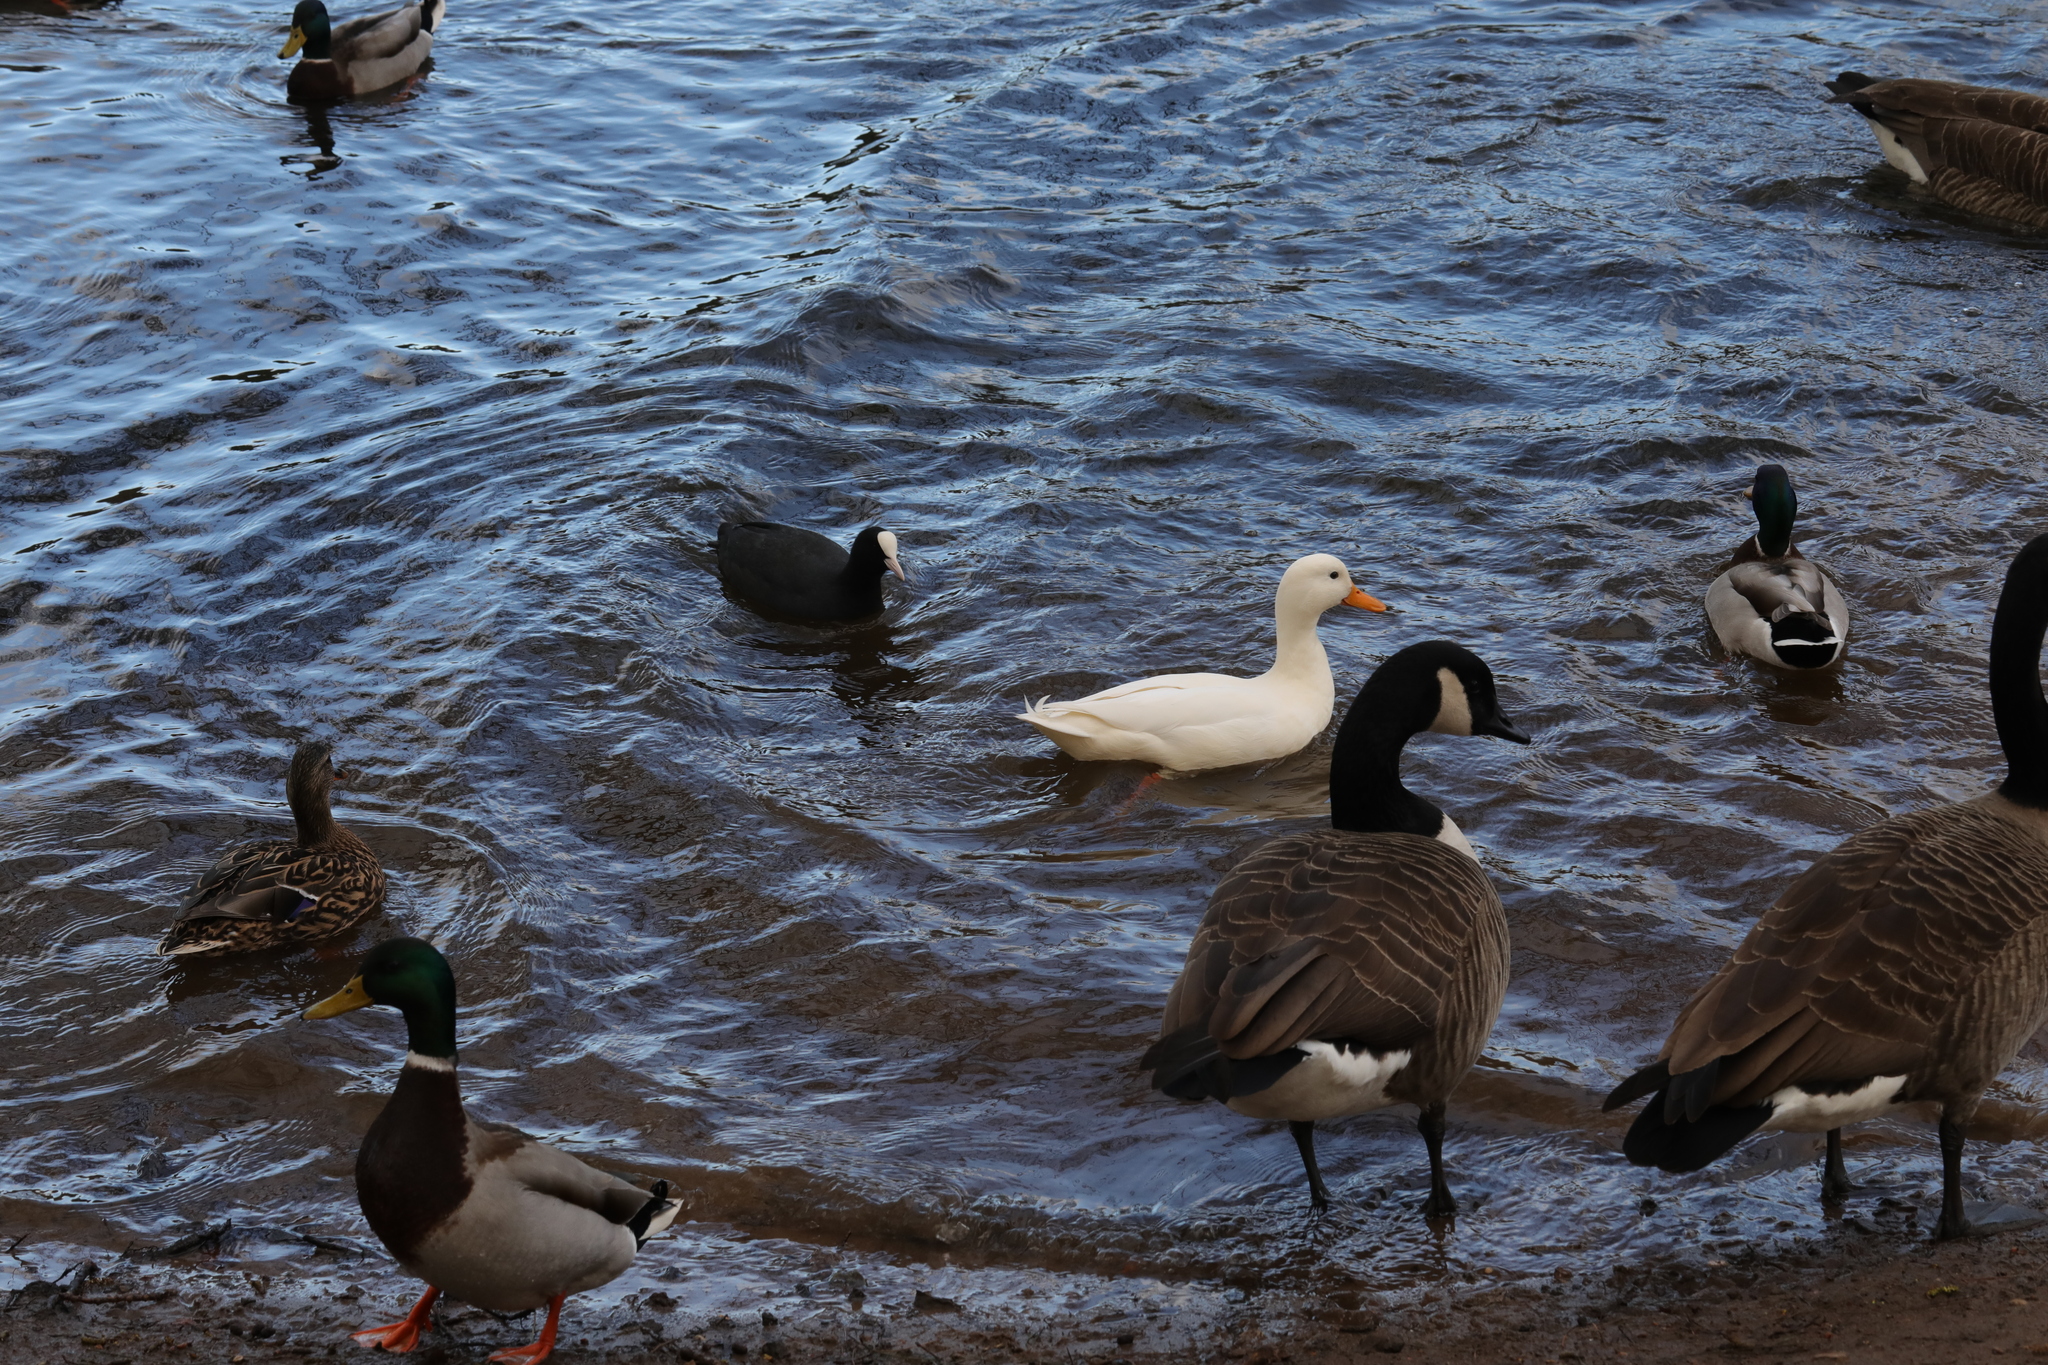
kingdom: Animalia
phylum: Chordata
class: Aves
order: Gruiformes
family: Rallidae
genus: Fulica
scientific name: Fulica atra
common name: Eurasian coot
